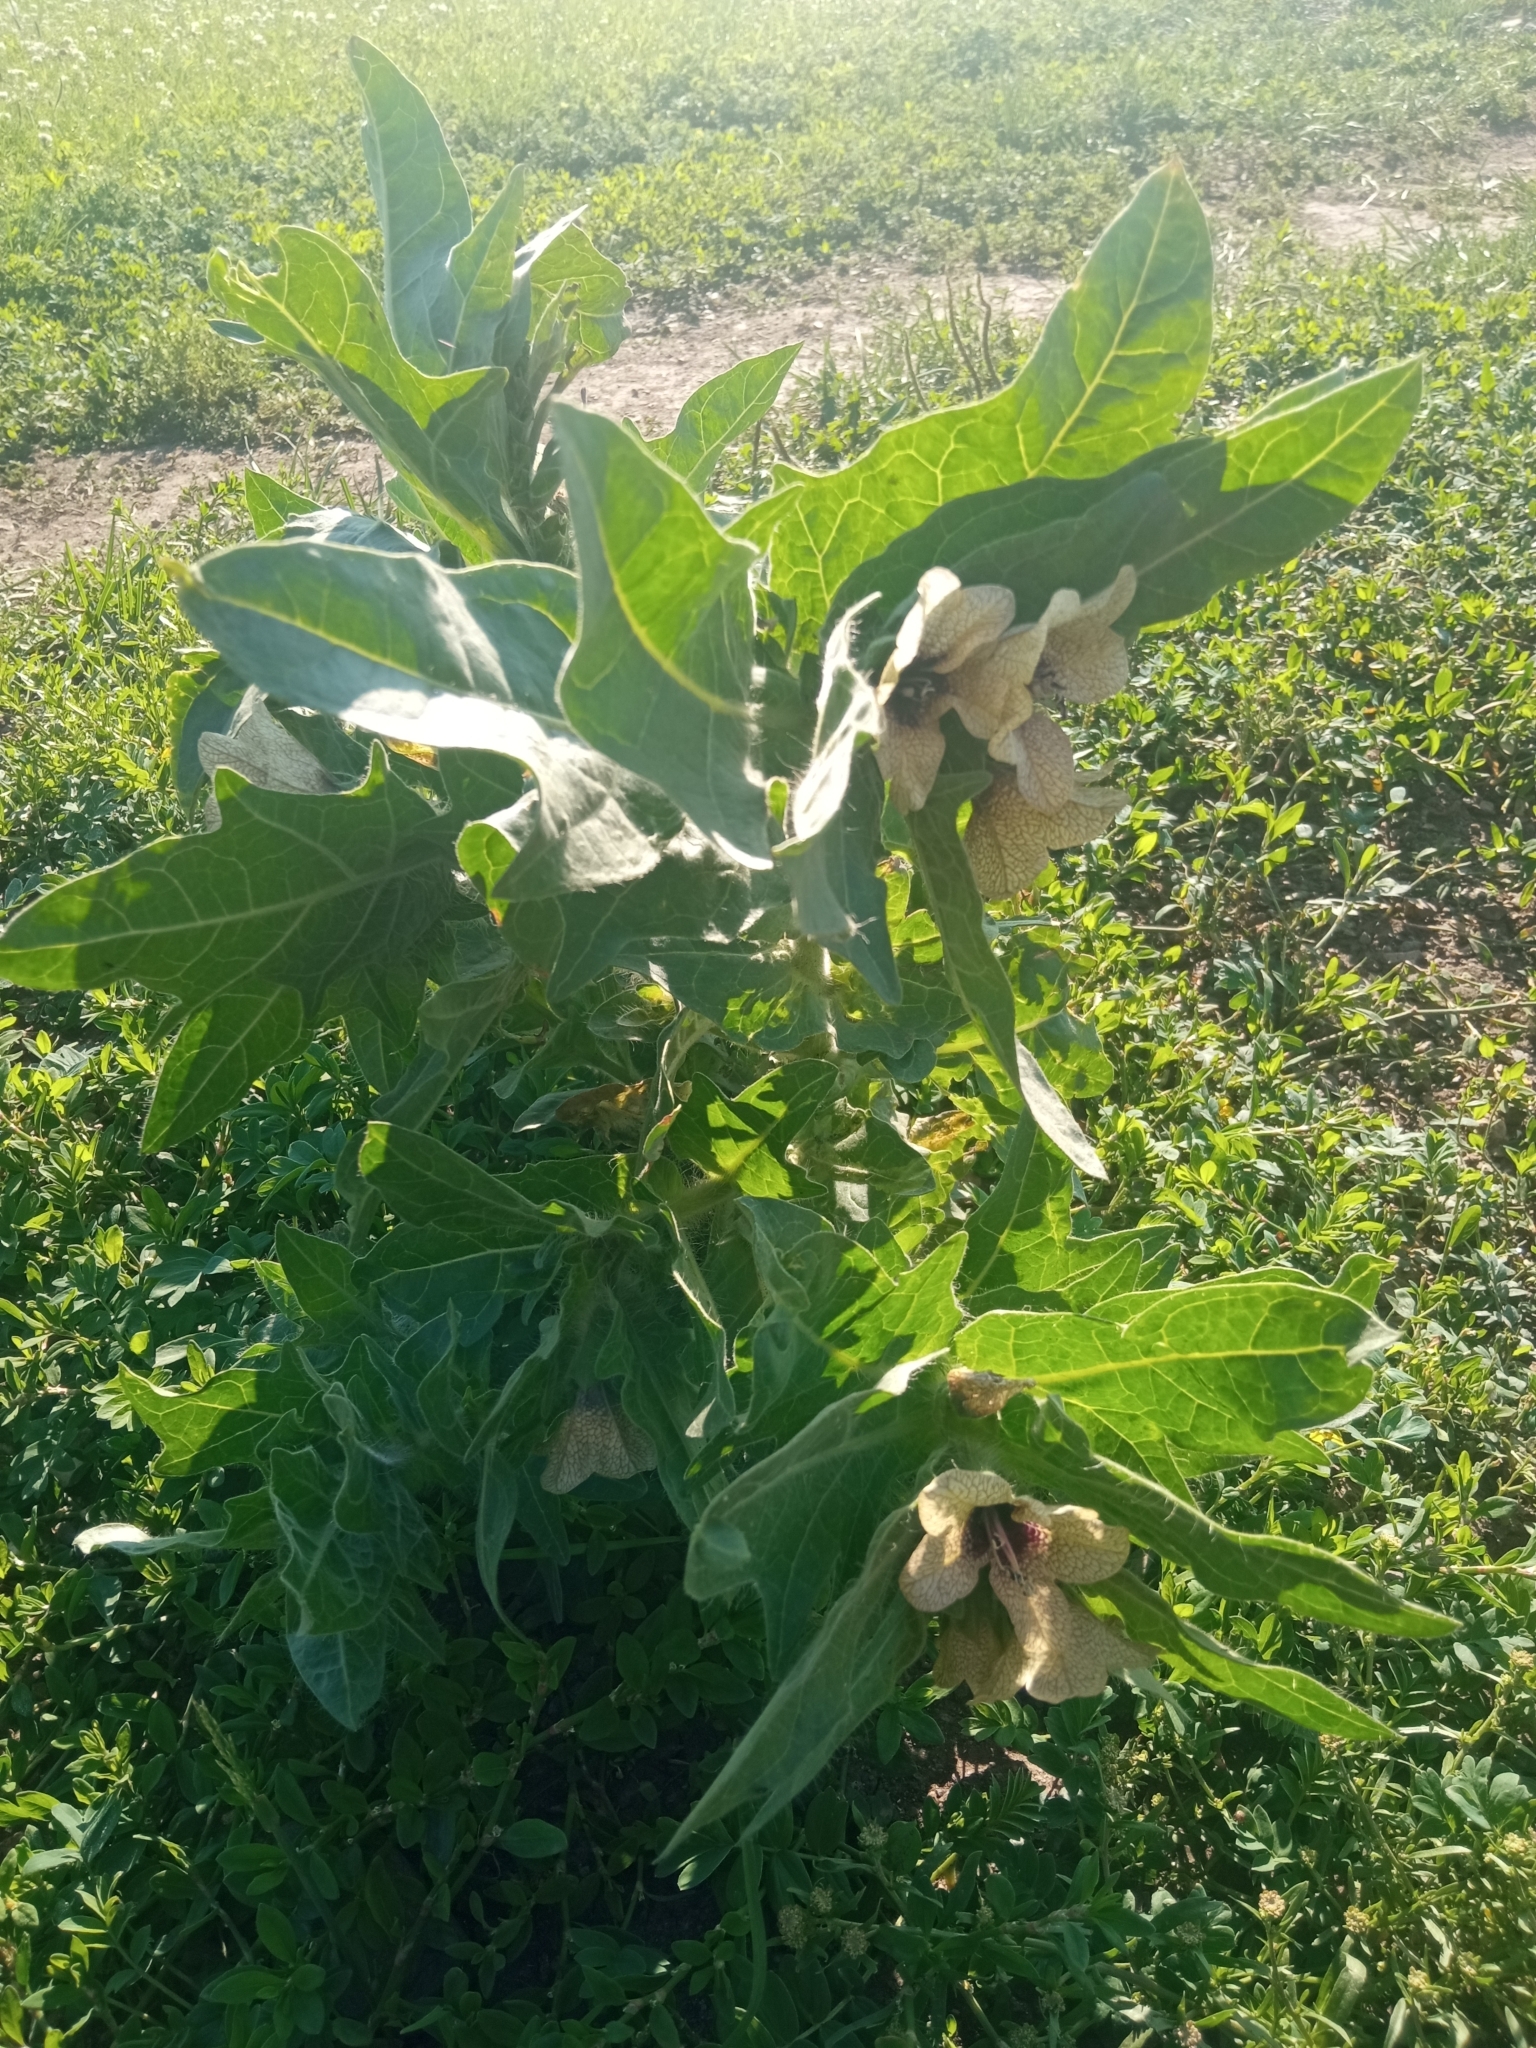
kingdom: Plantae
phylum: Tracheophyta
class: Magnoliopsida
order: Solanales
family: Solanaceae
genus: Hyoscyamus
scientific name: Hyoscyamus niger
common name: Henbane
